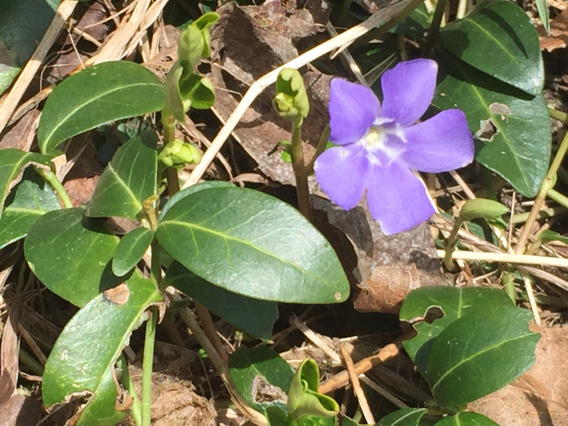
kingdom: Plantae
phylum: Tracheophyta
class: Magnoliopsida
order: Gentianales
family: Apocynaceae
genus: Vinca
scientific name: Vinca minor
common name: Lesser periwinkle
